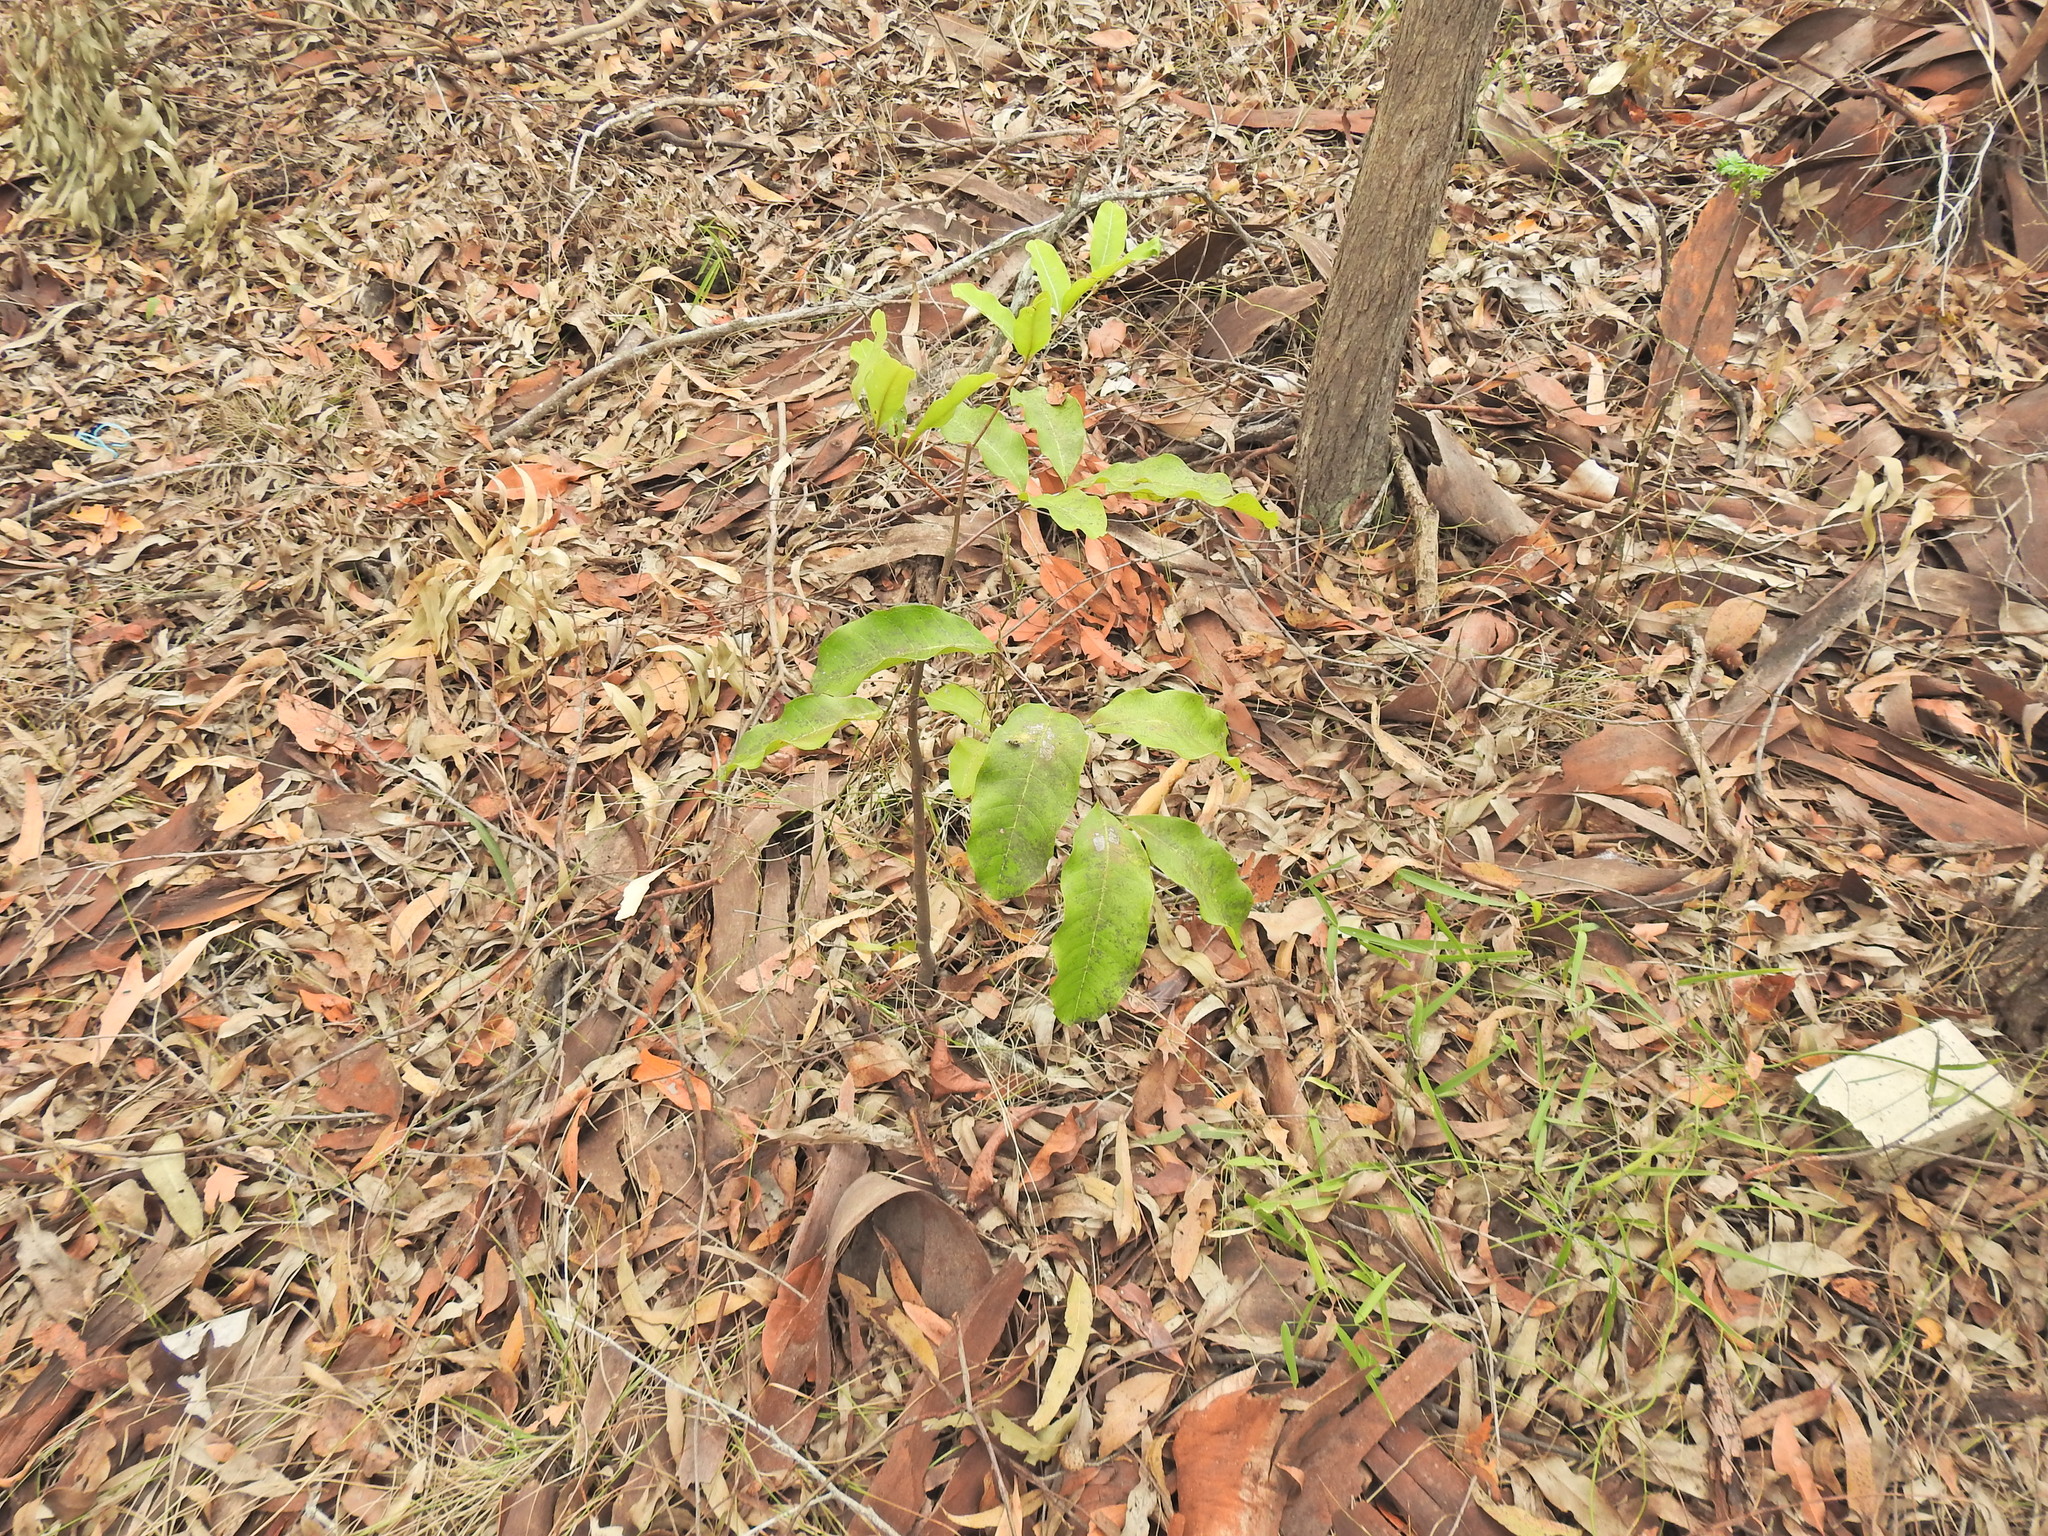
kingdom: Plantae
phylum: Tracheophyta
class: Magnoliopsida
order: Sapindales
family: Sapindaceae
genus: Cupaniopsis
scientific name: Cupaniopsis anacardioides
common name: Carrotwood
